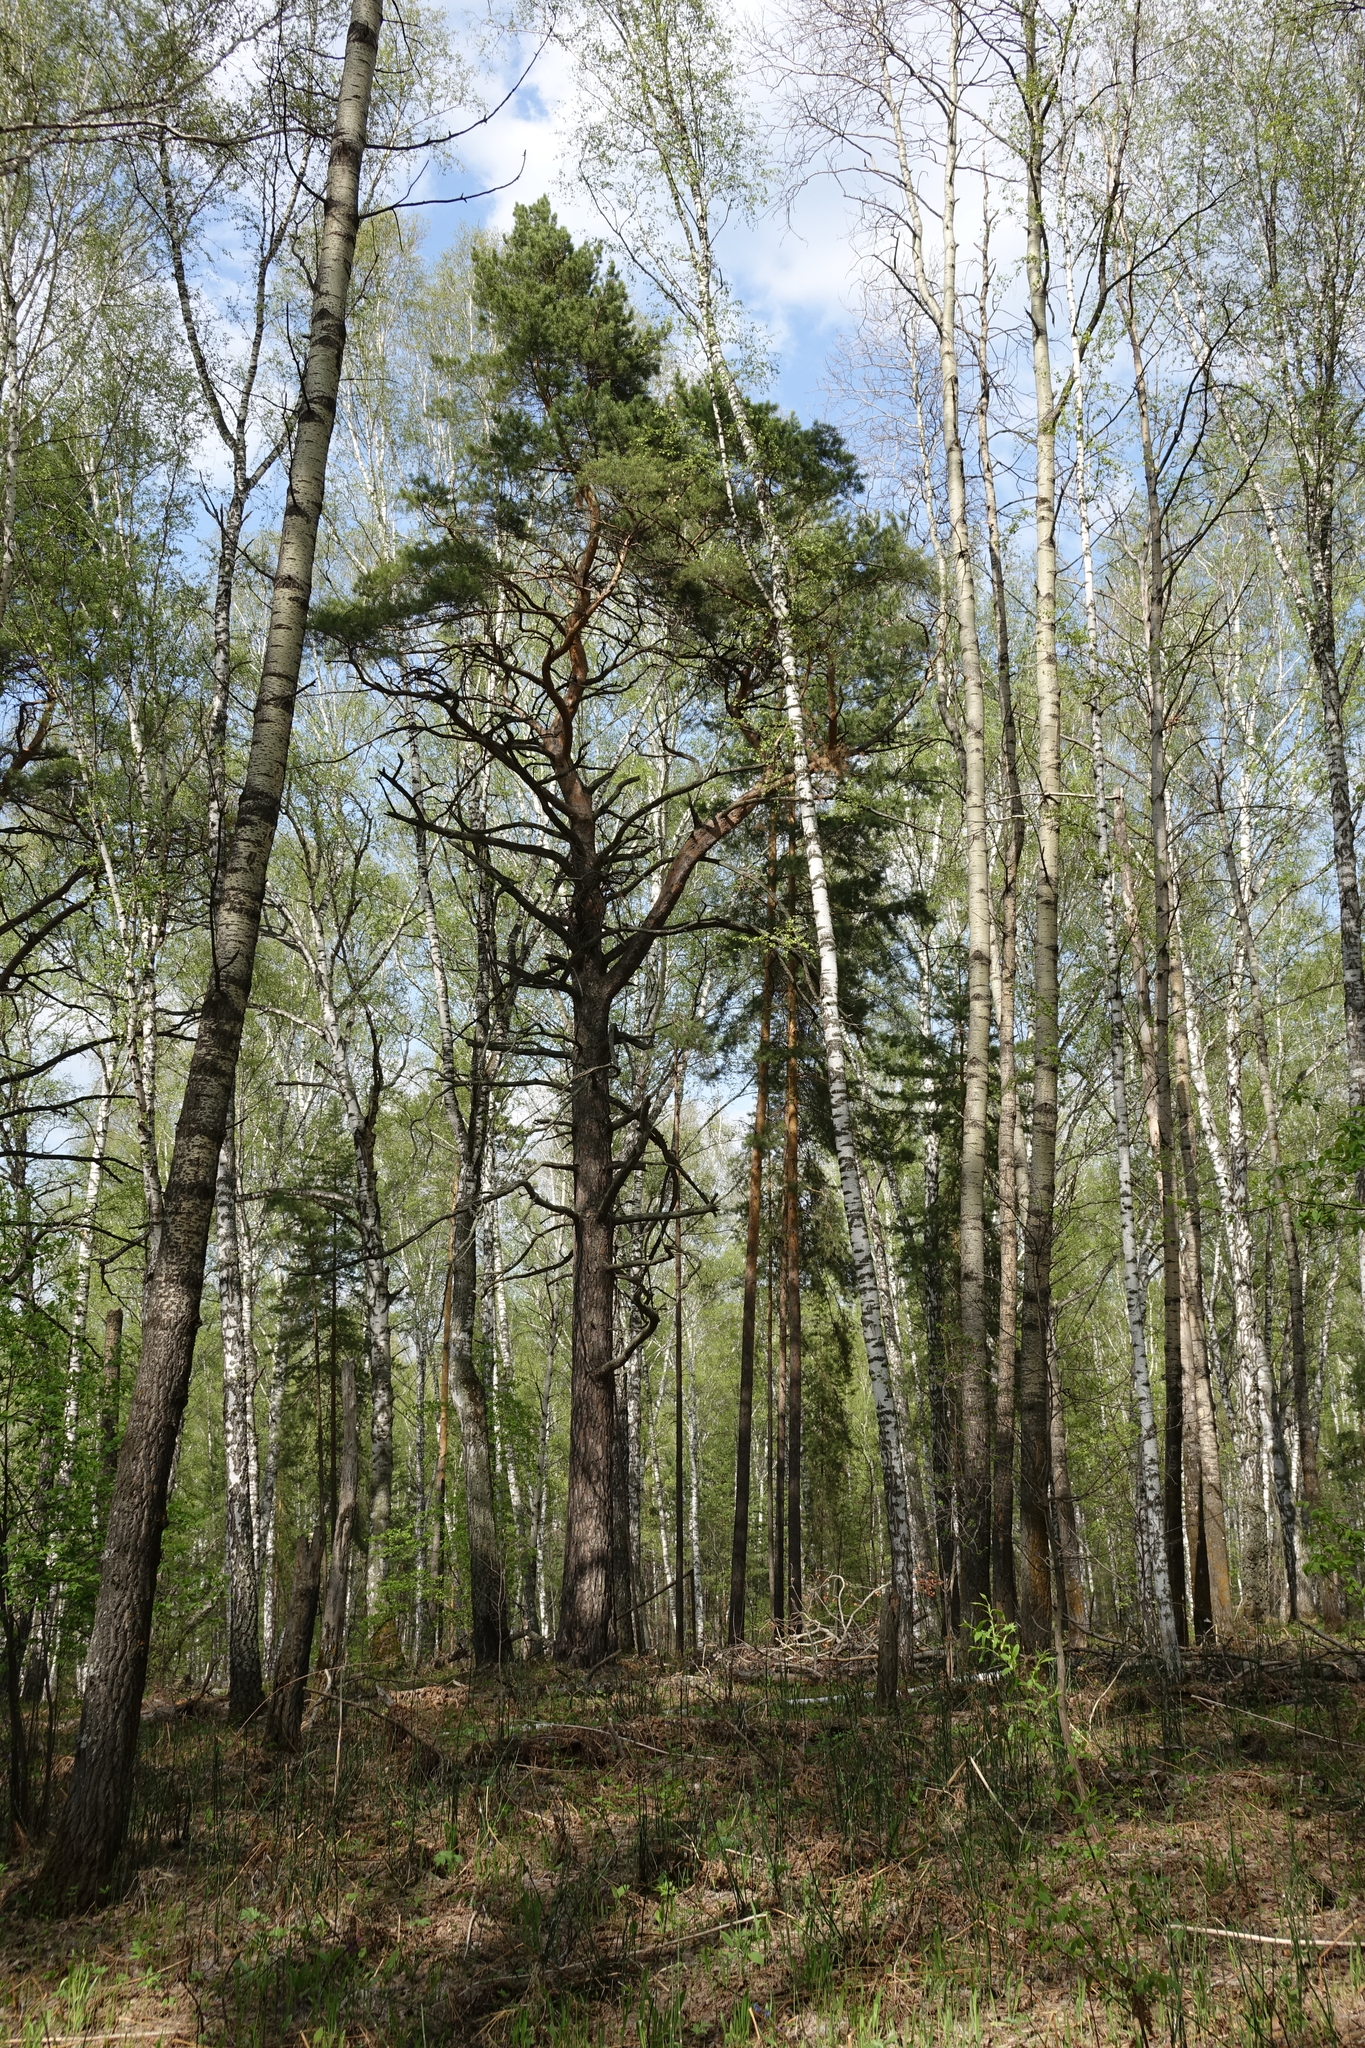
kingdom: Plantae
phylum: Tracheophyta
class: Pinopsida
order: Pinales
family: Pinaceae
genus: Pinus
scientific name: Pinus sylvestris
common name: Scots pine
